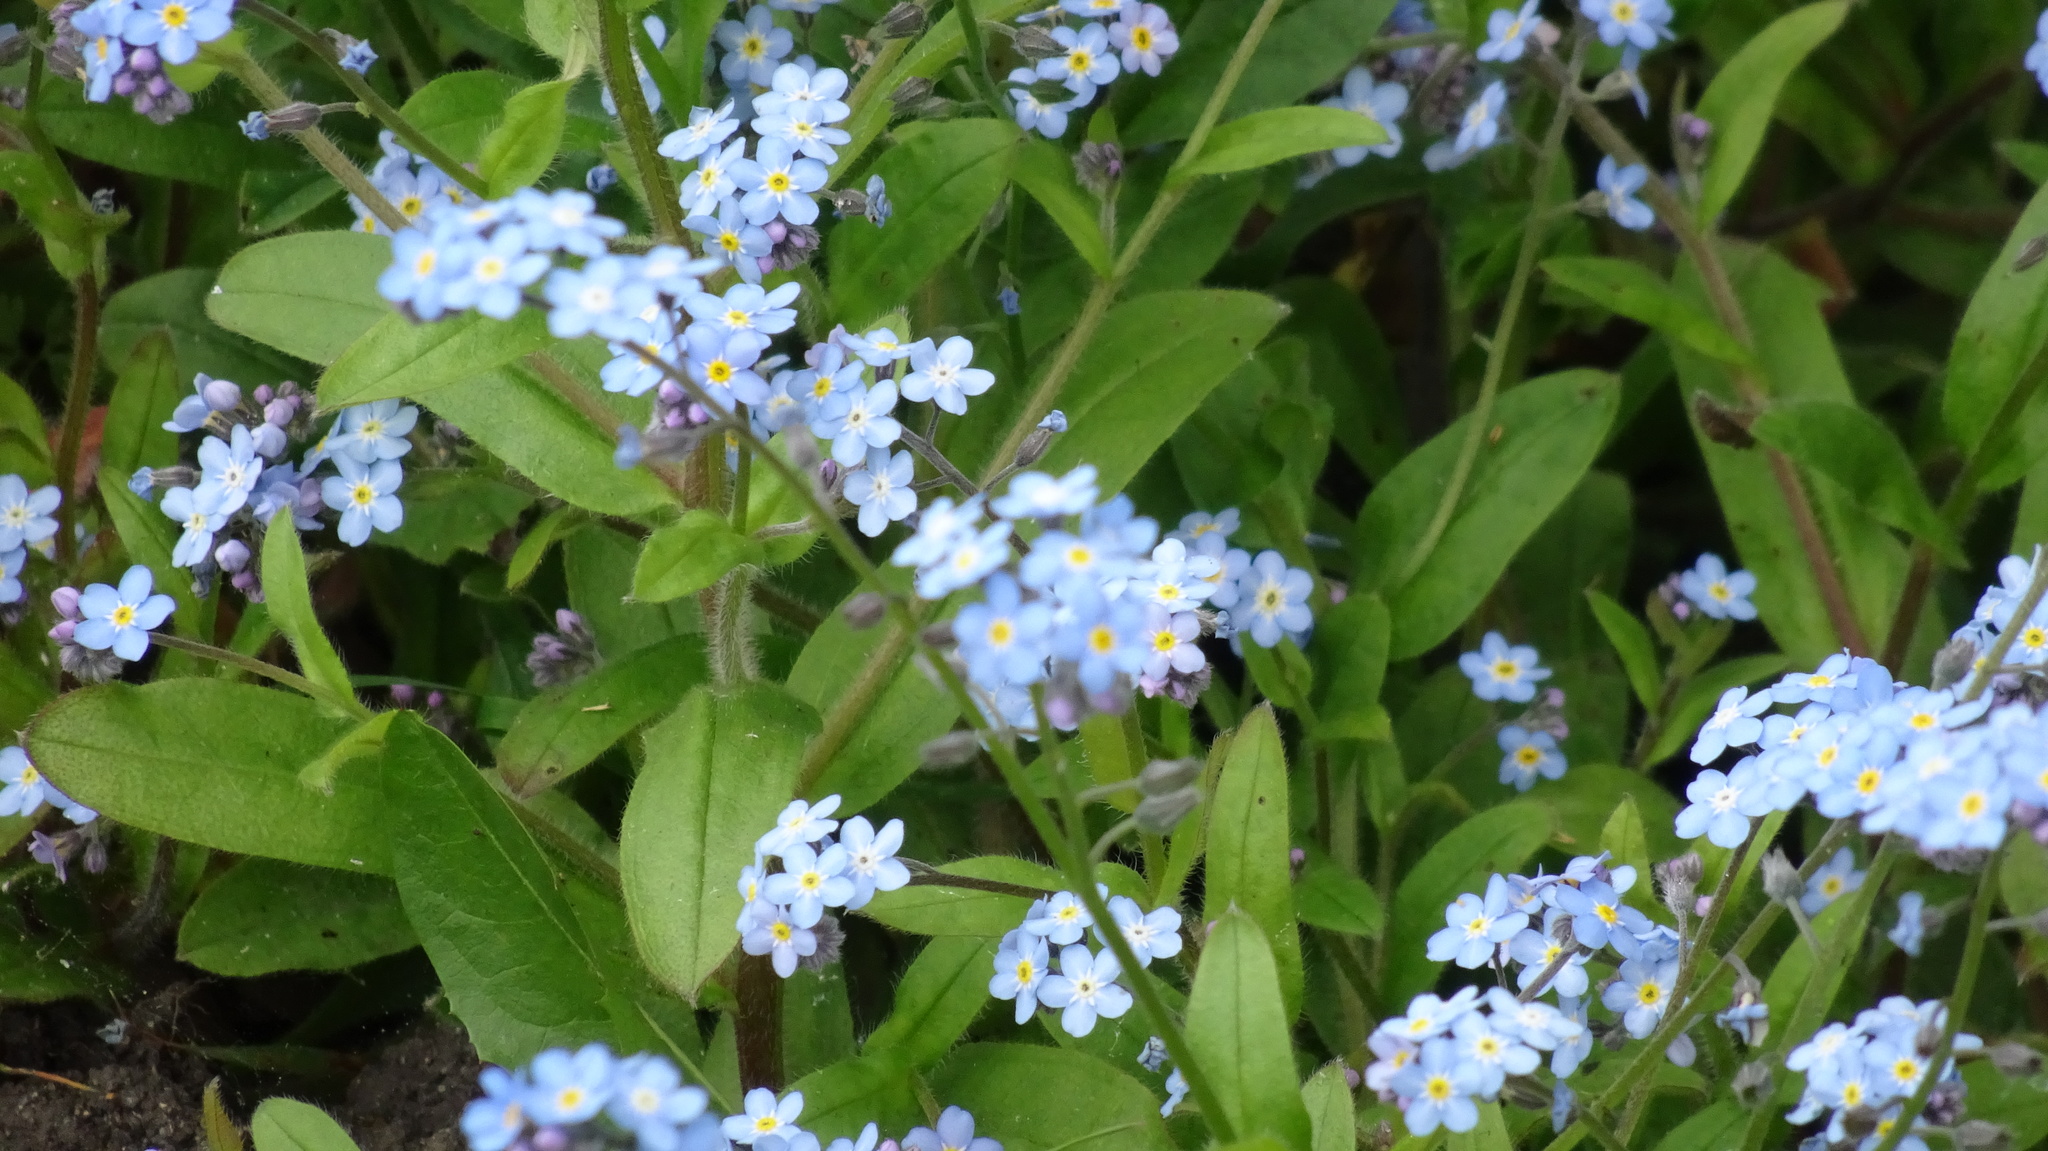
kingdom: Plantae
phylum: Tracheophyta
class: Magnoliopsida
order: Boraginales
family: Boraginaceae
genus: Myosotis
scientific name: Myosotis sylvatica
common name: Wood forget-me-not
